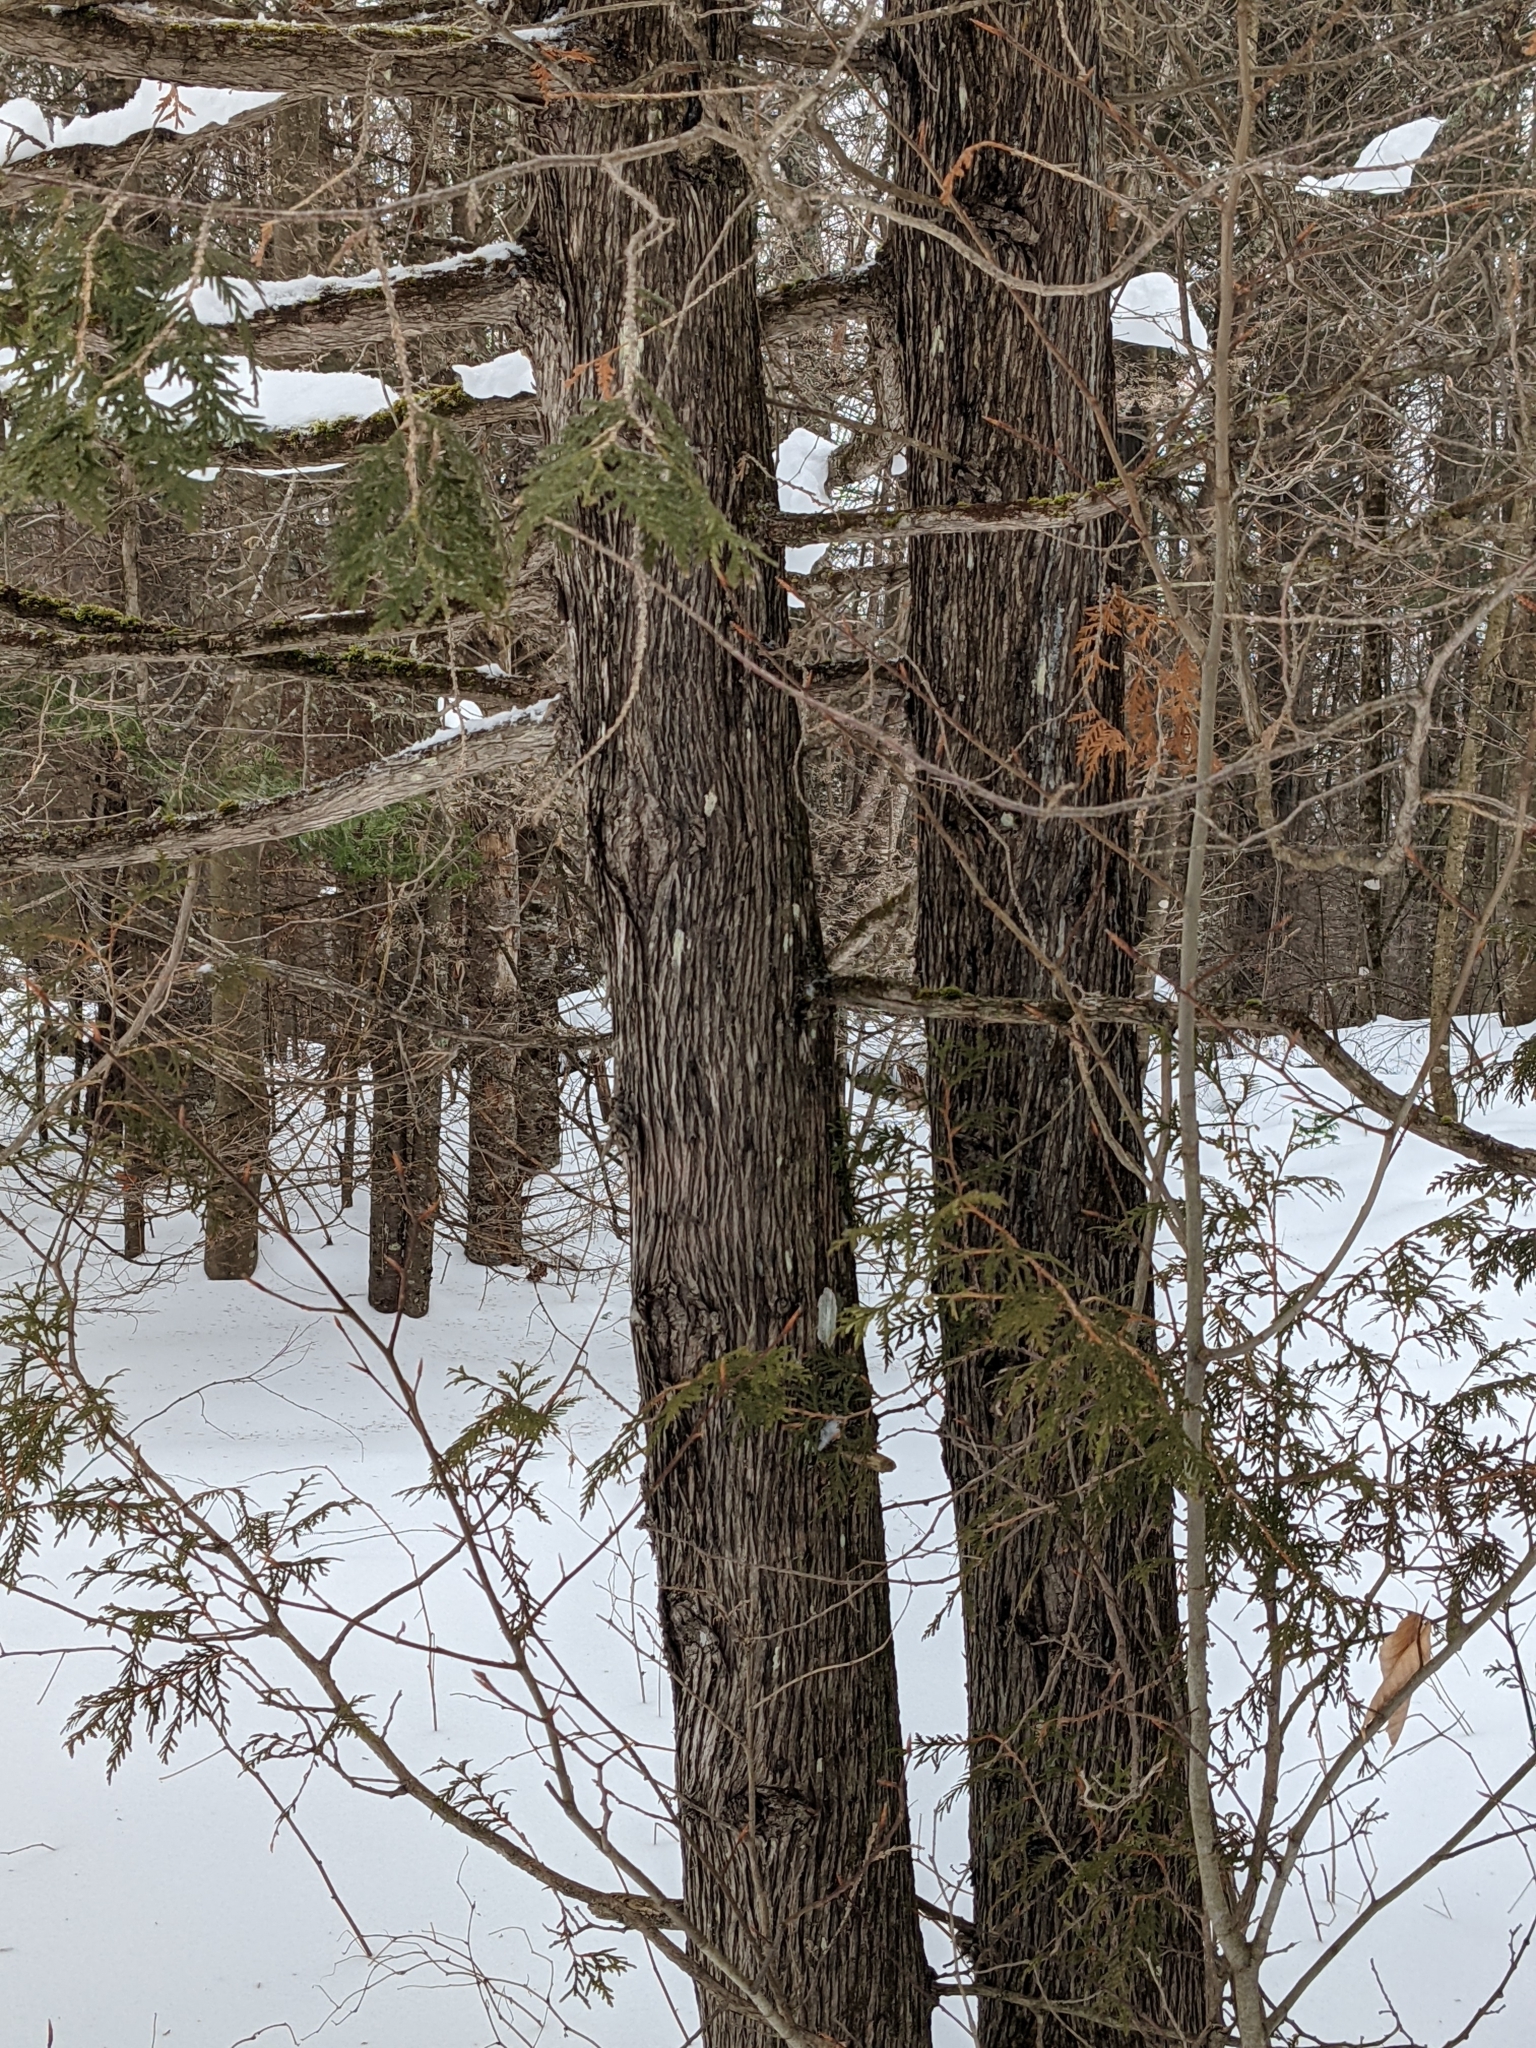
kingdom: Plantae
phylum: Tracheophyta
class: Pinopsida
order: Pinales
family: Cupressaceae
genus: Thuja
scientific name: Thuja occidentalis
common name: Northern white-cedar
